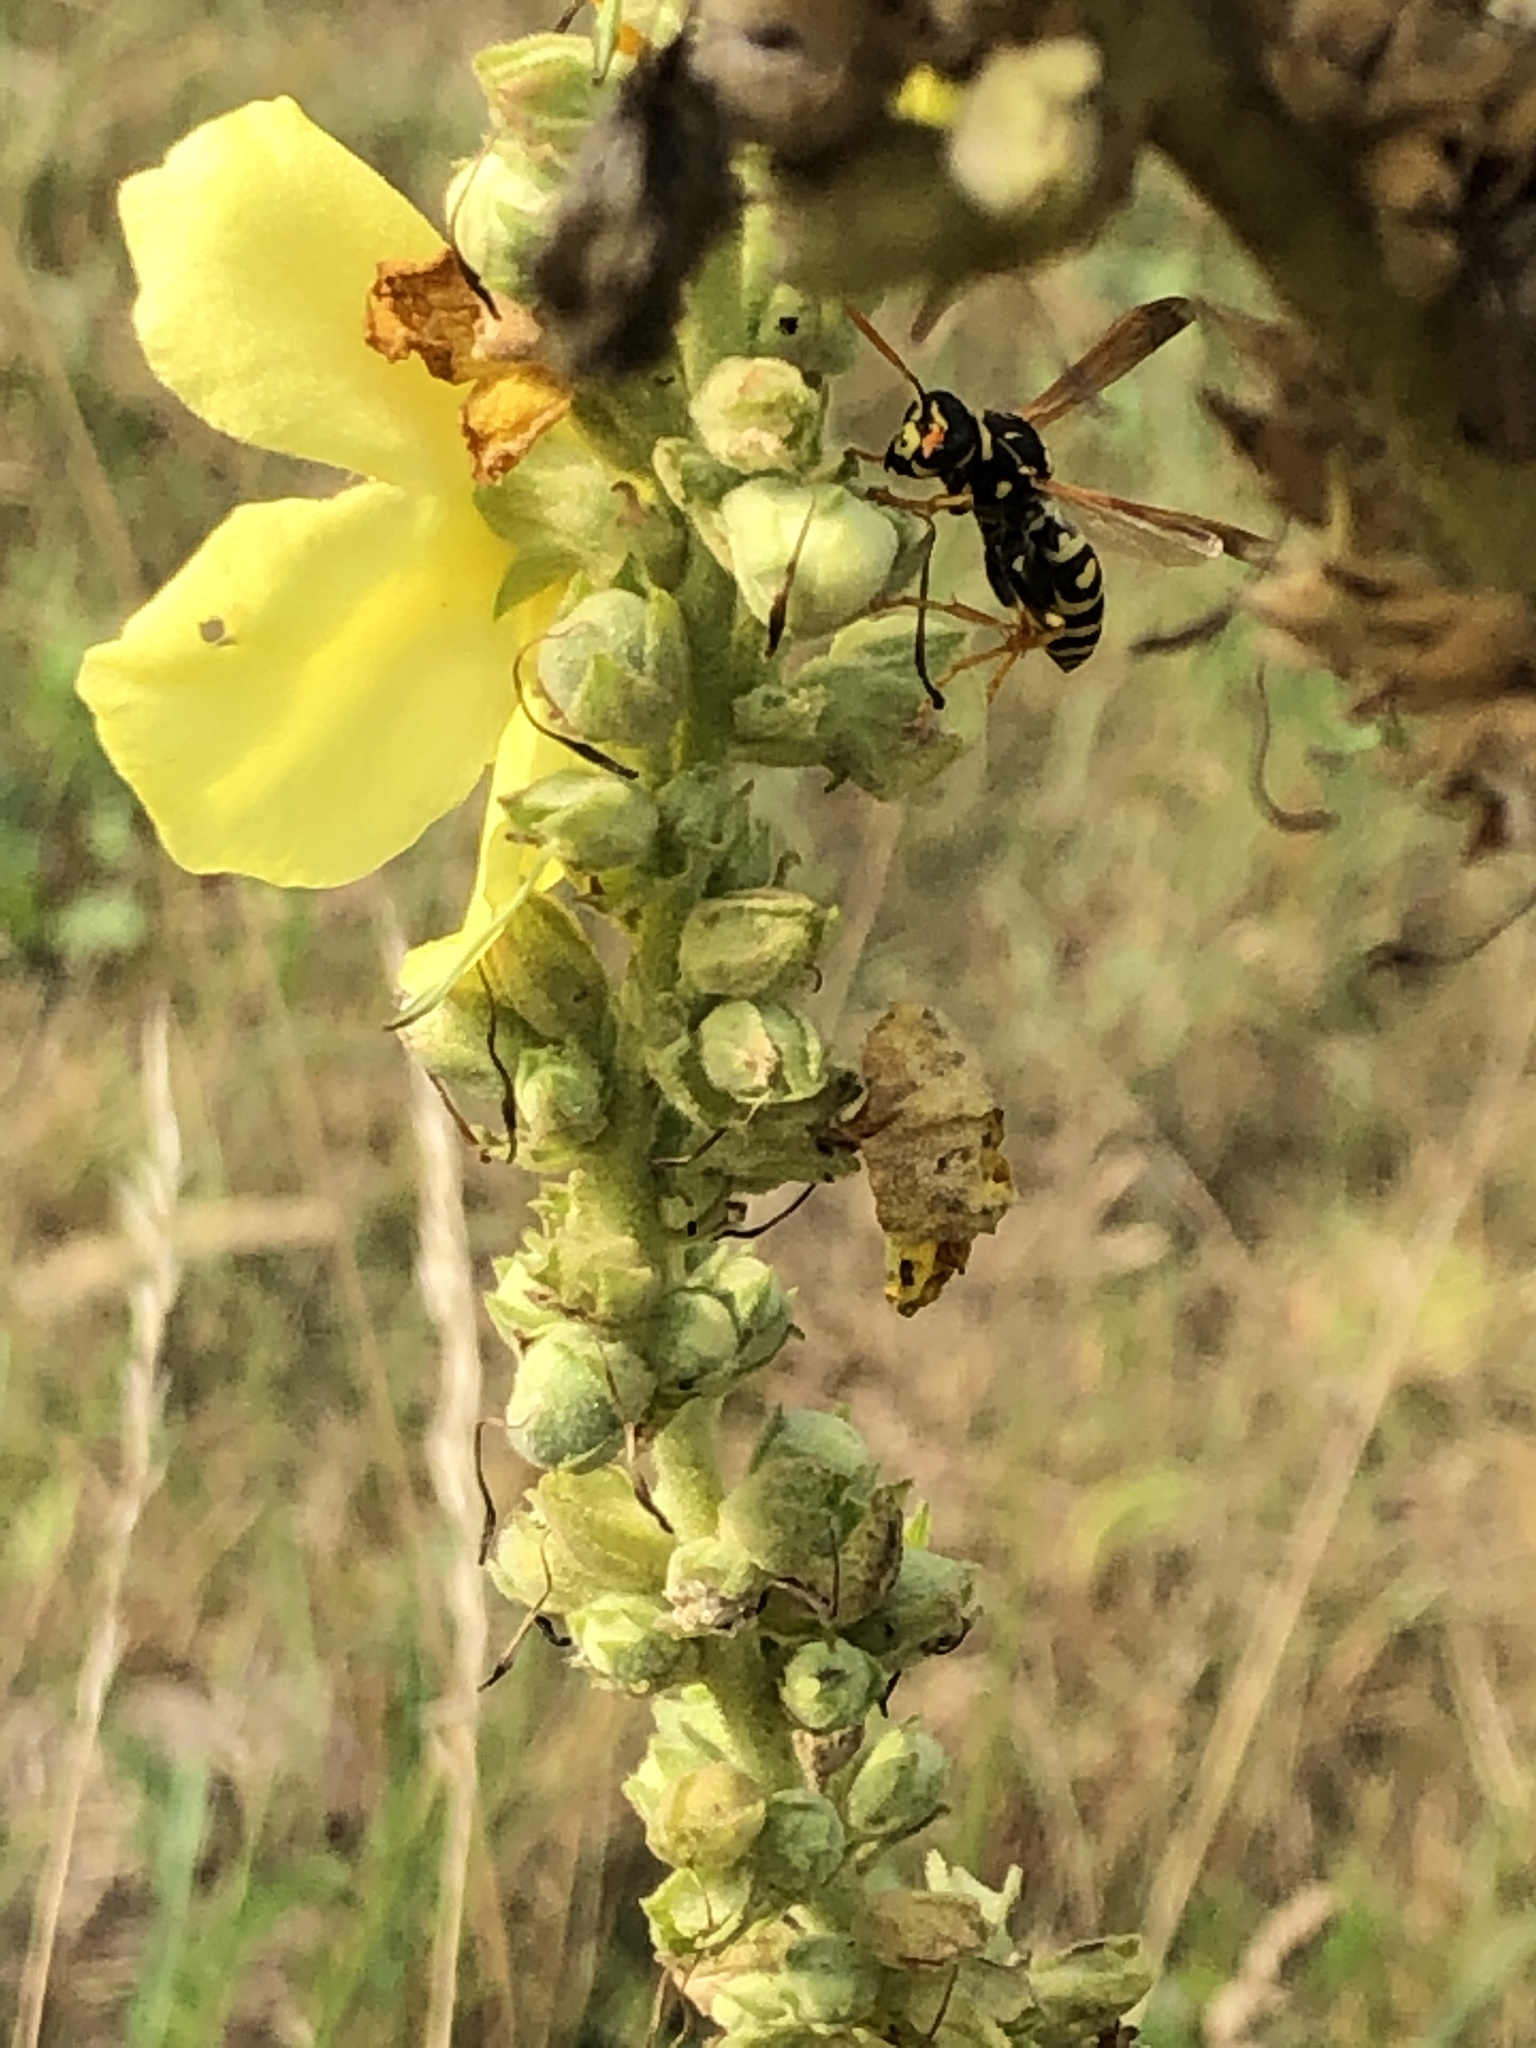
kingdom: Animalia
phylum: Arthropoda
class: Insecta
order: Hymenoptera
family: Eumenidae
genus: Polistes
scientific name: Polistes dominula
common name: Paper wasp
